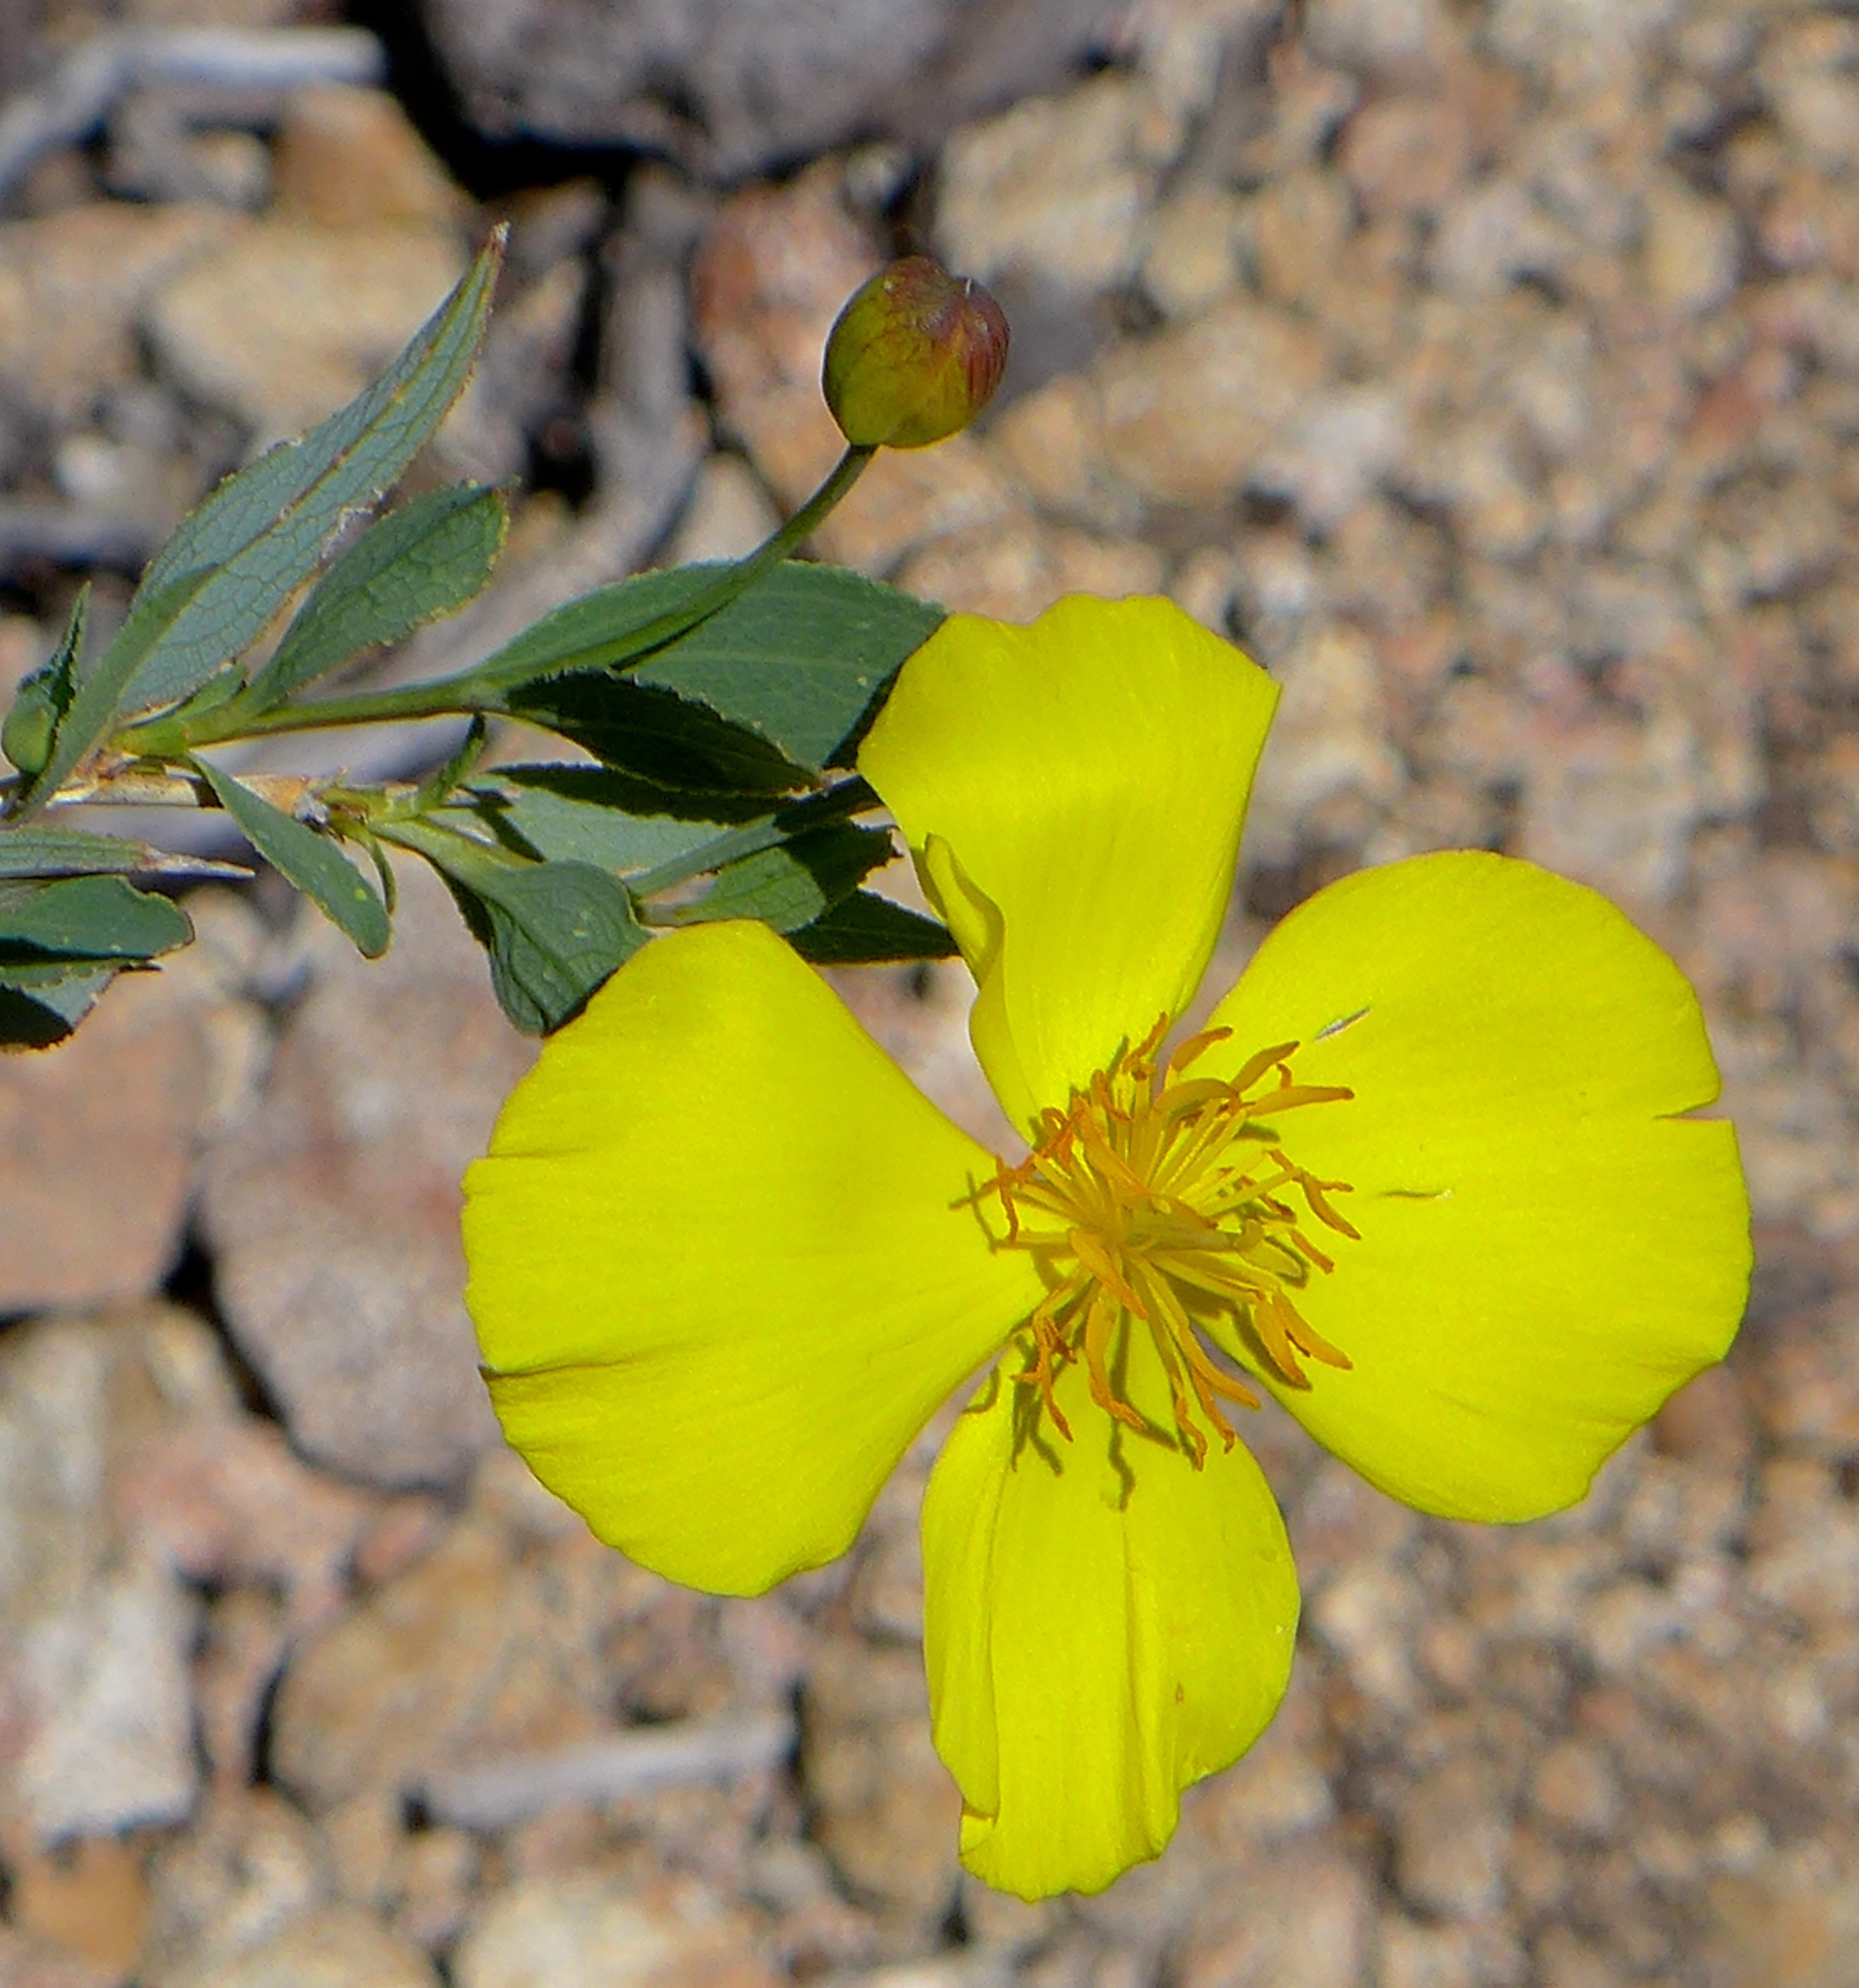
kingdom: Plantae
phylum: Tracheophyta
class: Magnoliopsida
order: Ranunculales
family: Papaveraceae
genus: Dendromecon
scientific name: Dendromecon rigida
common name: Tree poppy
